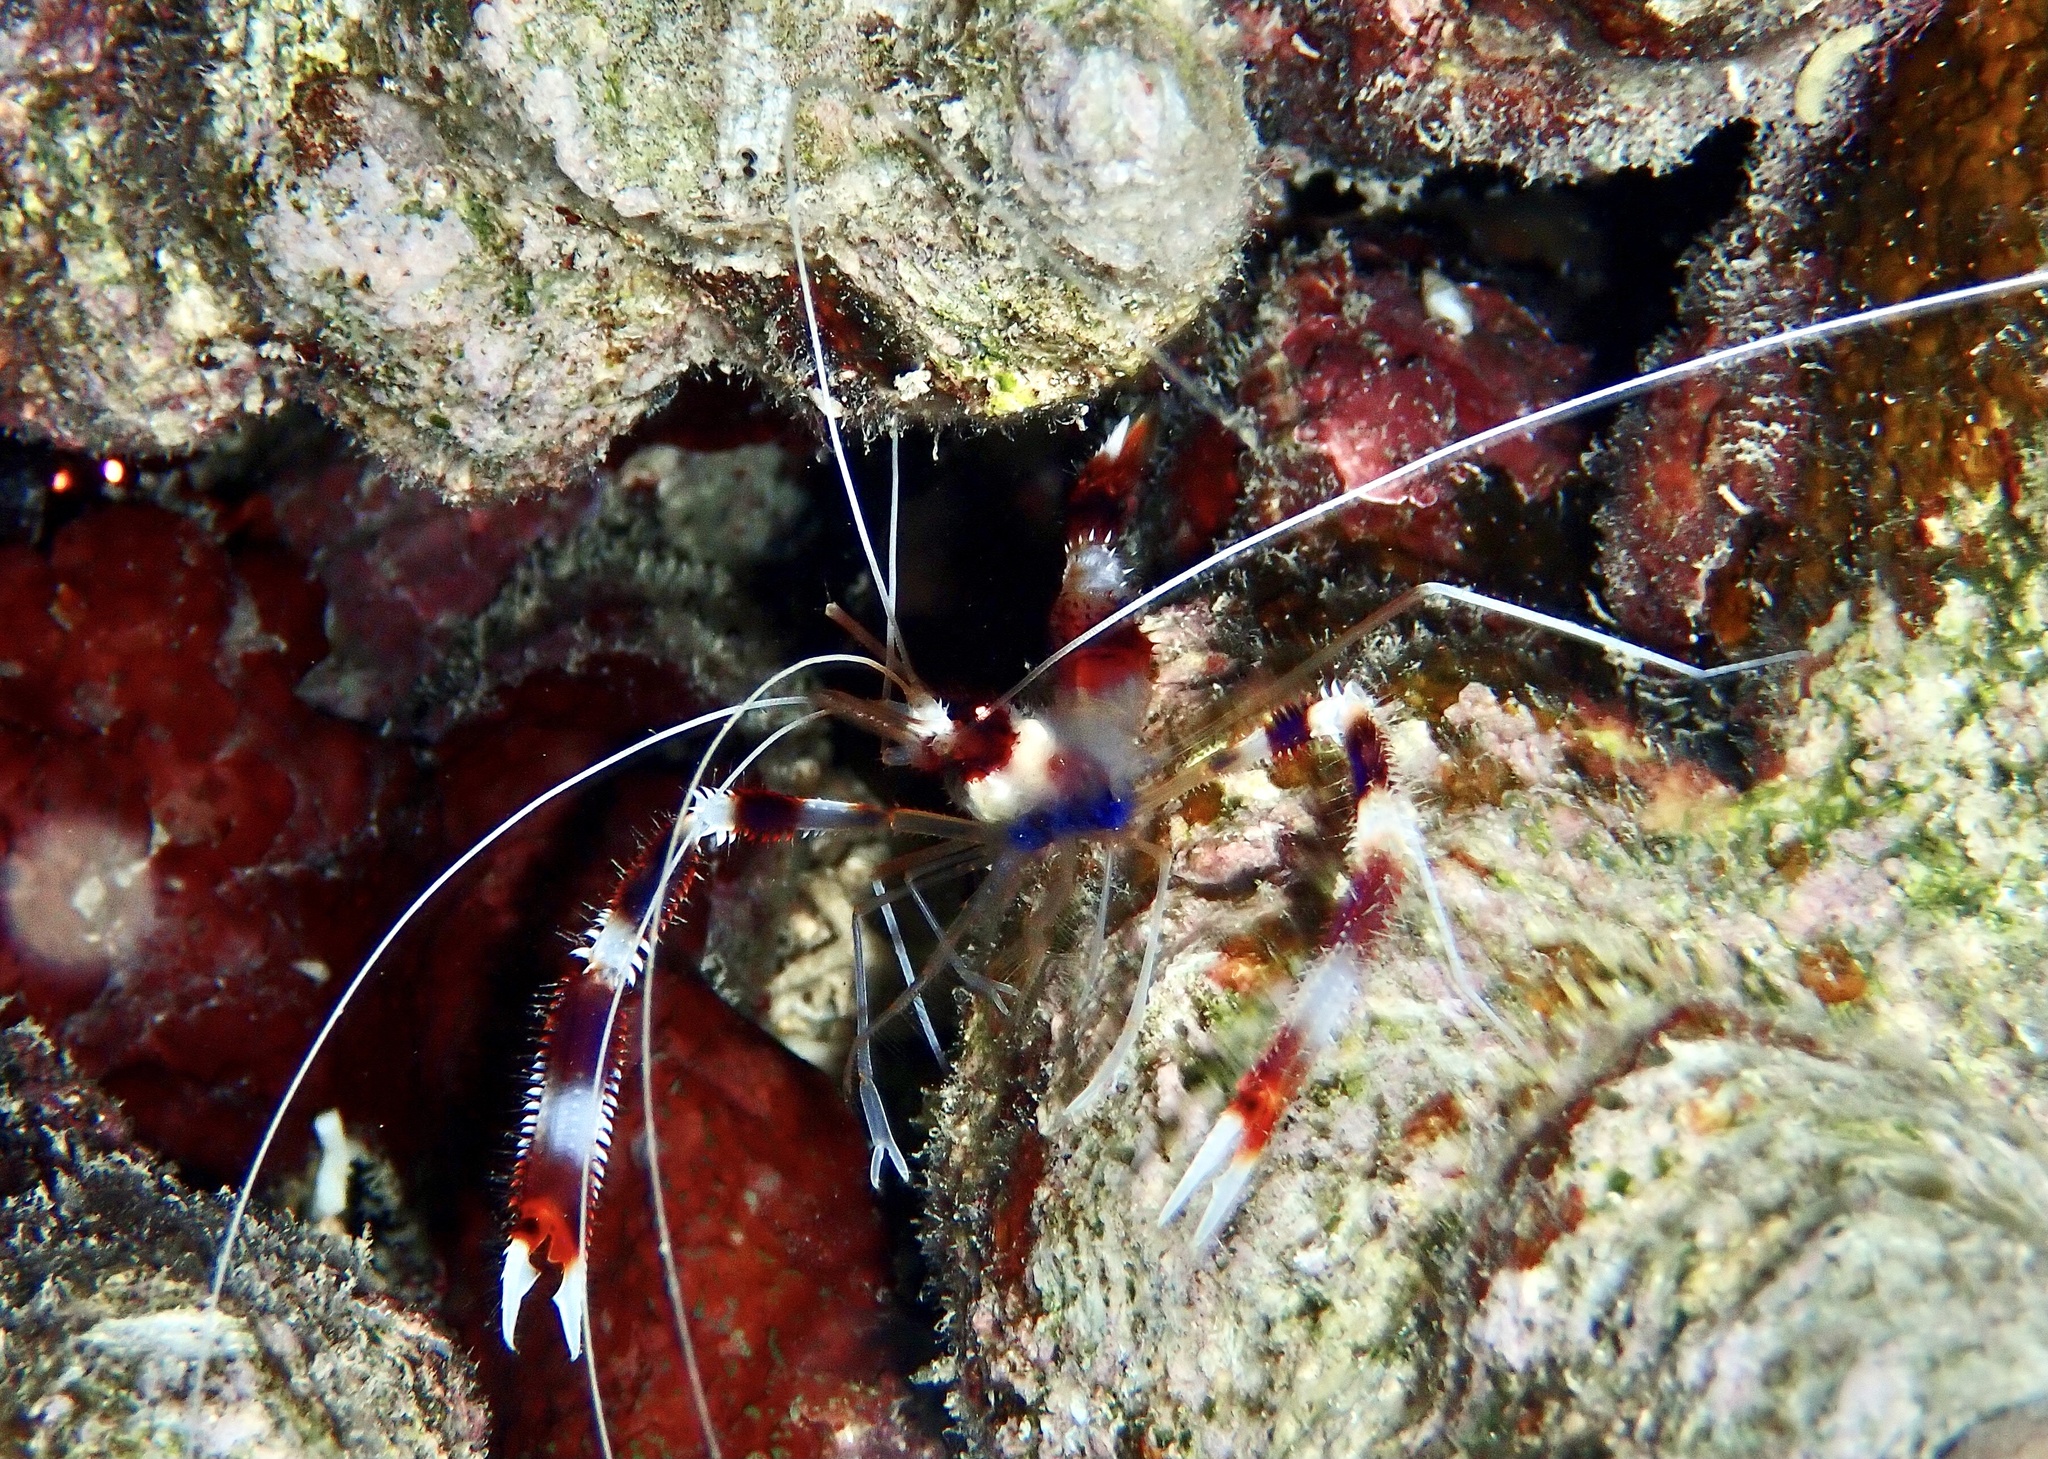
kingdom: Animalia
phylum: Arthropoda
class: Malacostraca
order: Decapoda
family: Stenopodidae
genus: Stenopus
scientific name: Stenopus hispidus
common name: Banded coral shrimp
